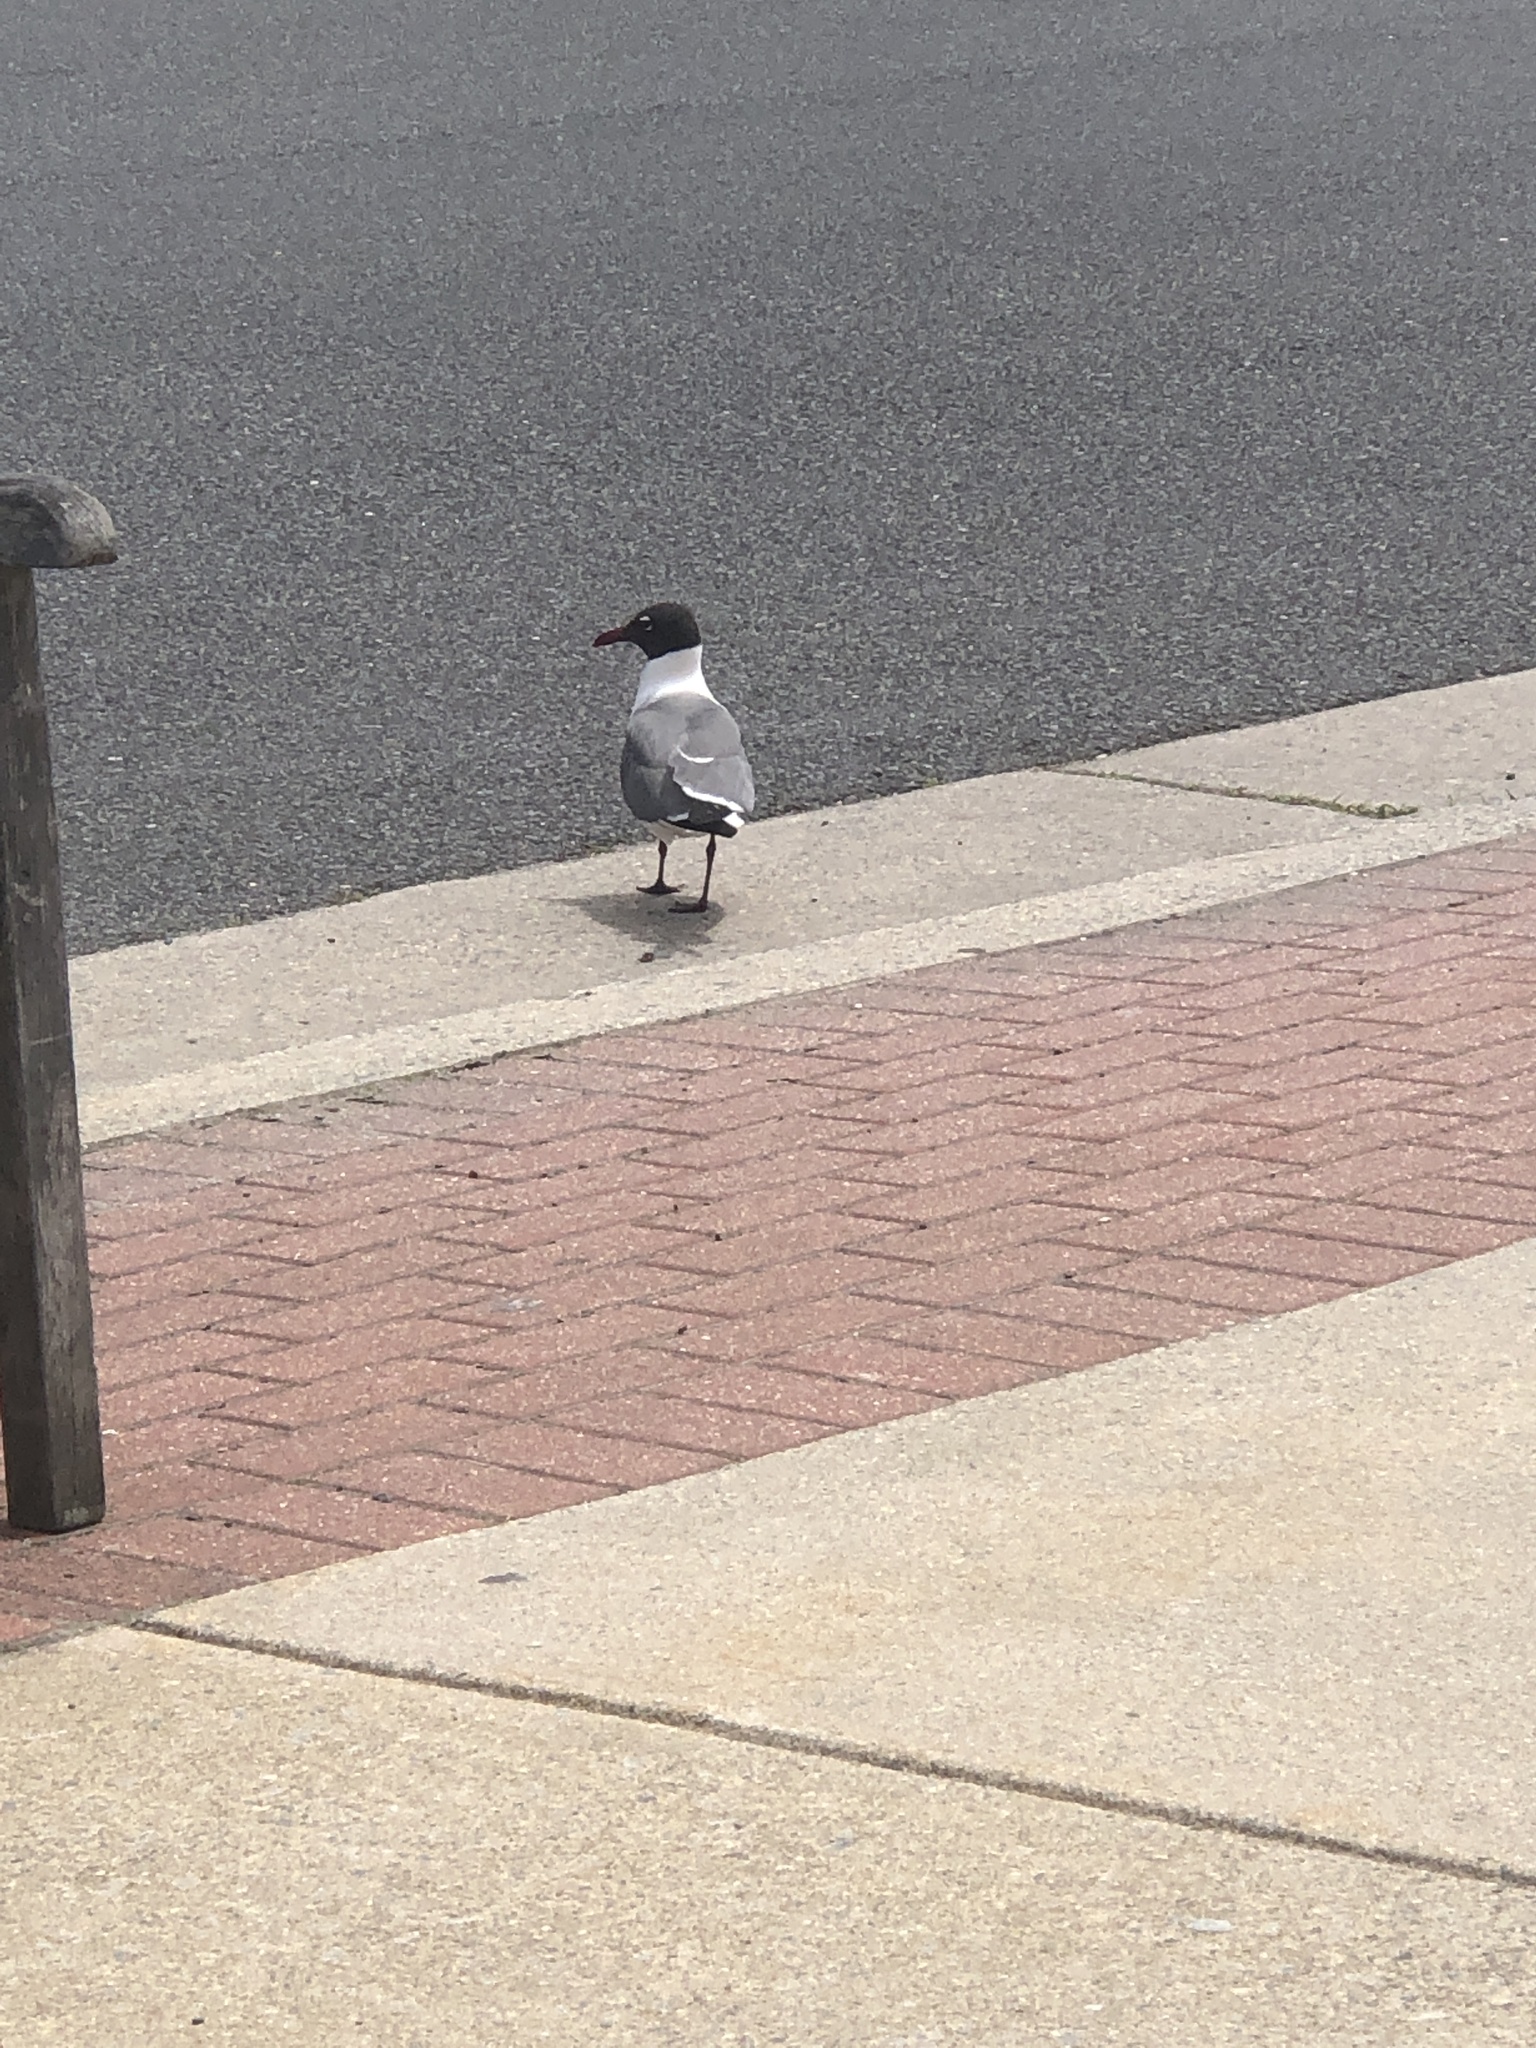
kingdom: Animalia
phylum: Chordata
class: Aves
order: Charadriiformes
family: Laridae
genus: Leucophaeus
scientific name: Leucophaeus atricilla
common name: Laughing gull
